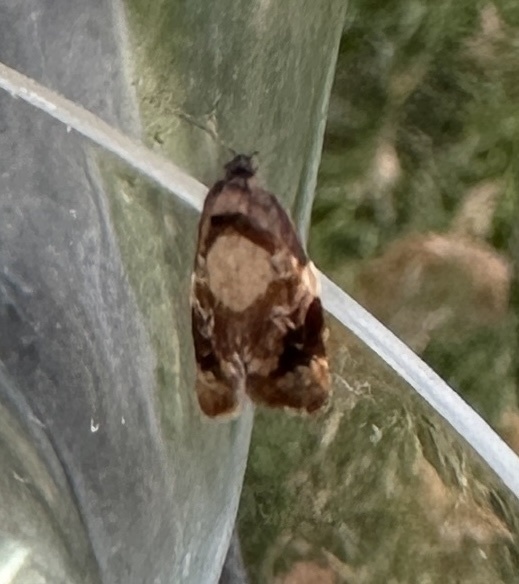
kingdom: Animalia
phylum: Arthropoda
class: Insecta
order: Lepidoptera
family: Tortricidae
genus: Ditula
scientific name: Ditula angustiorana
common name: Red-barred tortrix
